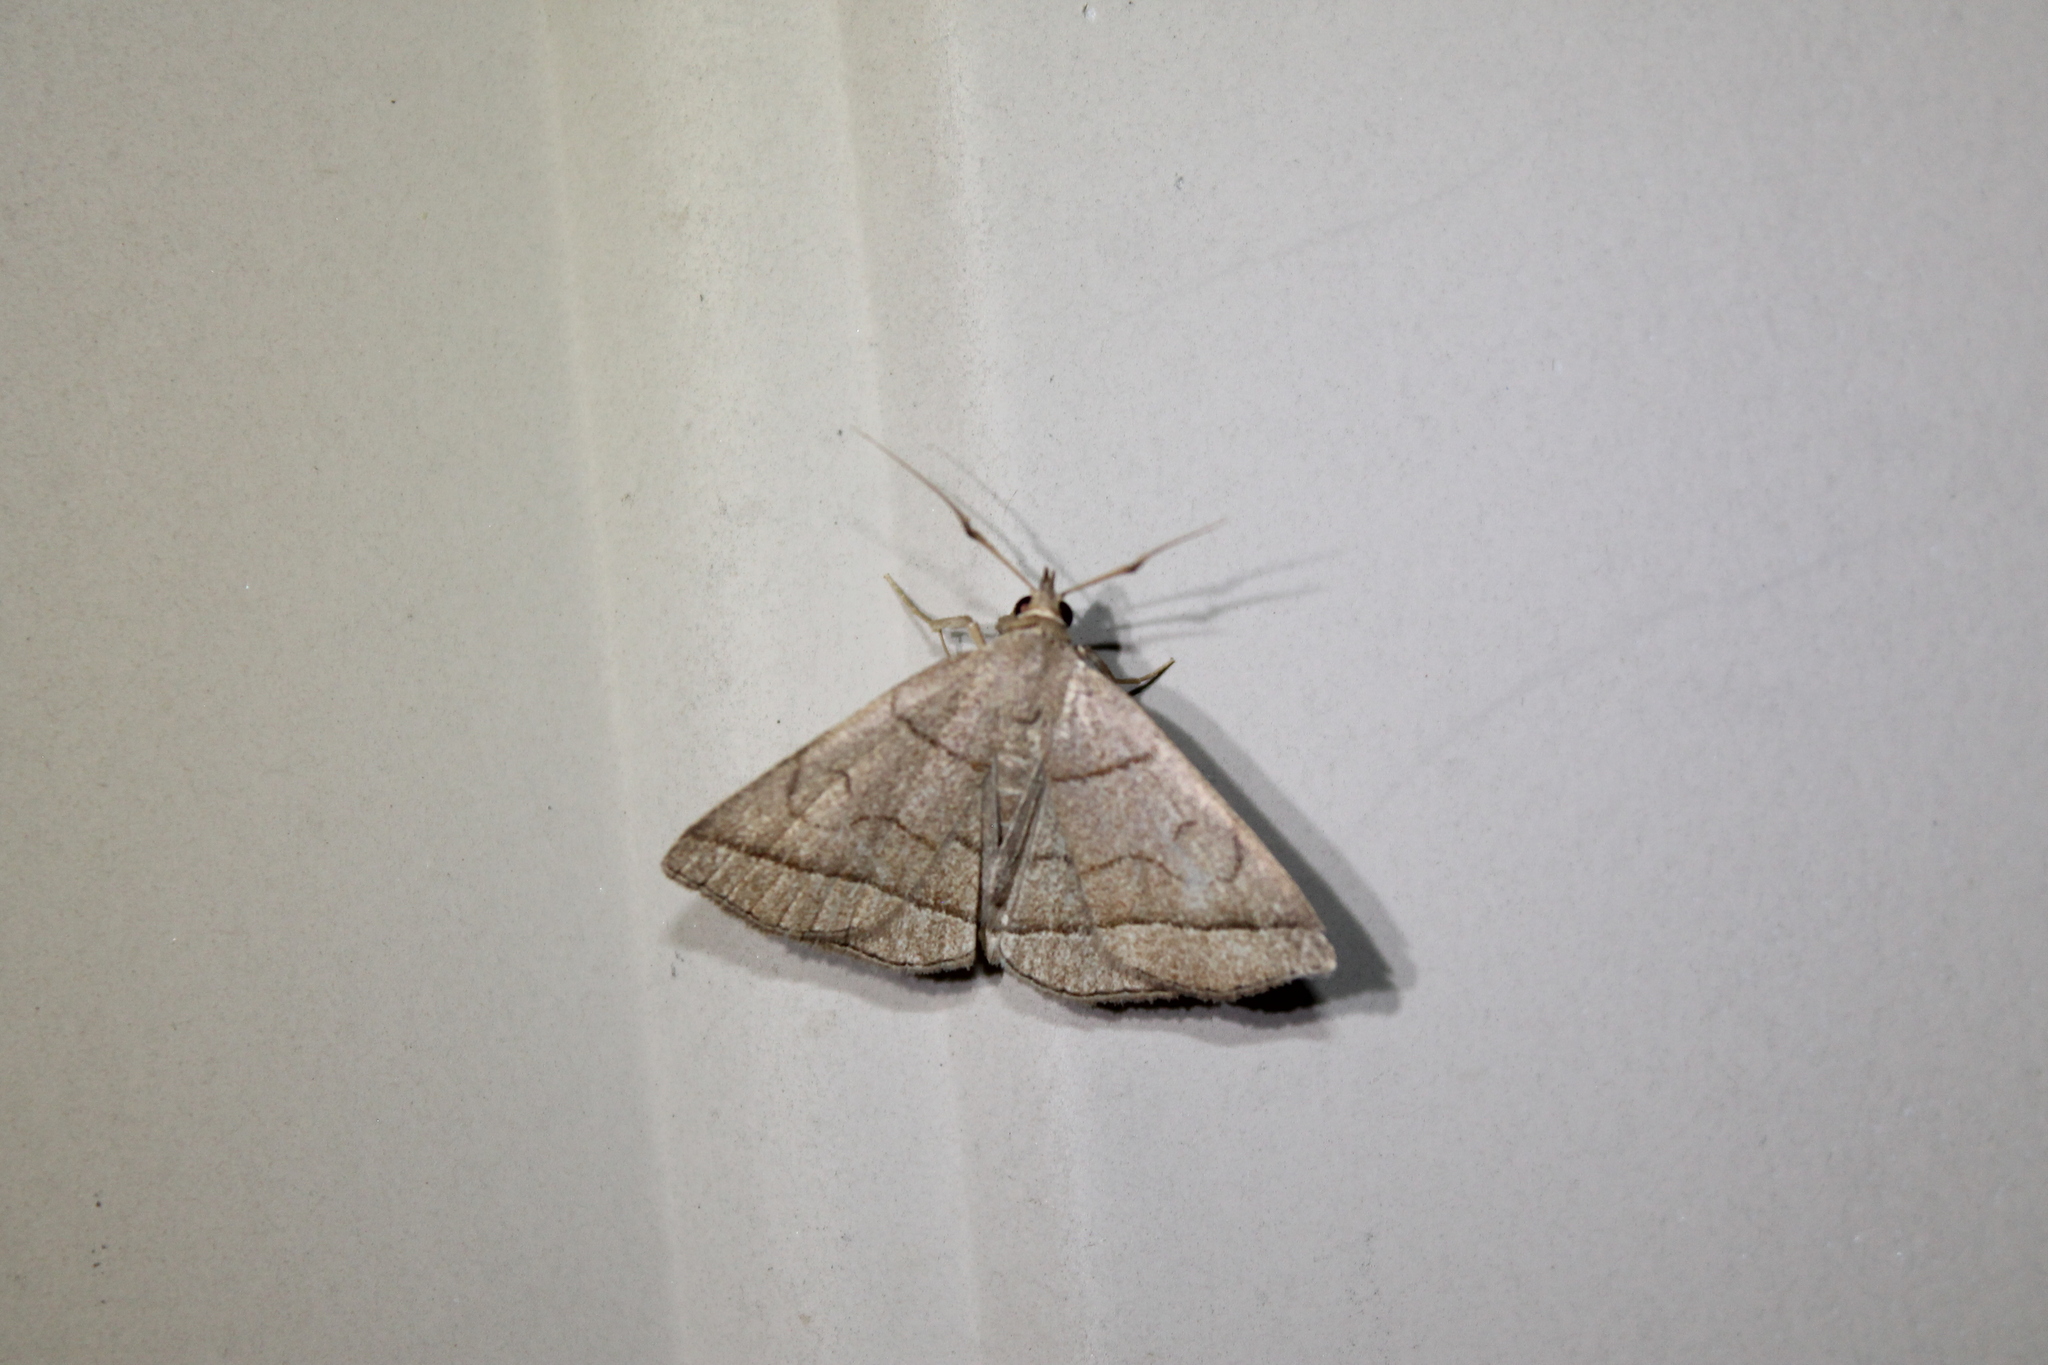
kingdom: Animalia
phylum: Arthropoda
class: Insecta
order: Lepidoptera
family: Erebidae
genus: Zanclognatha
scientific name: Zanclognatha cruralis
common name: Early fan-foot
